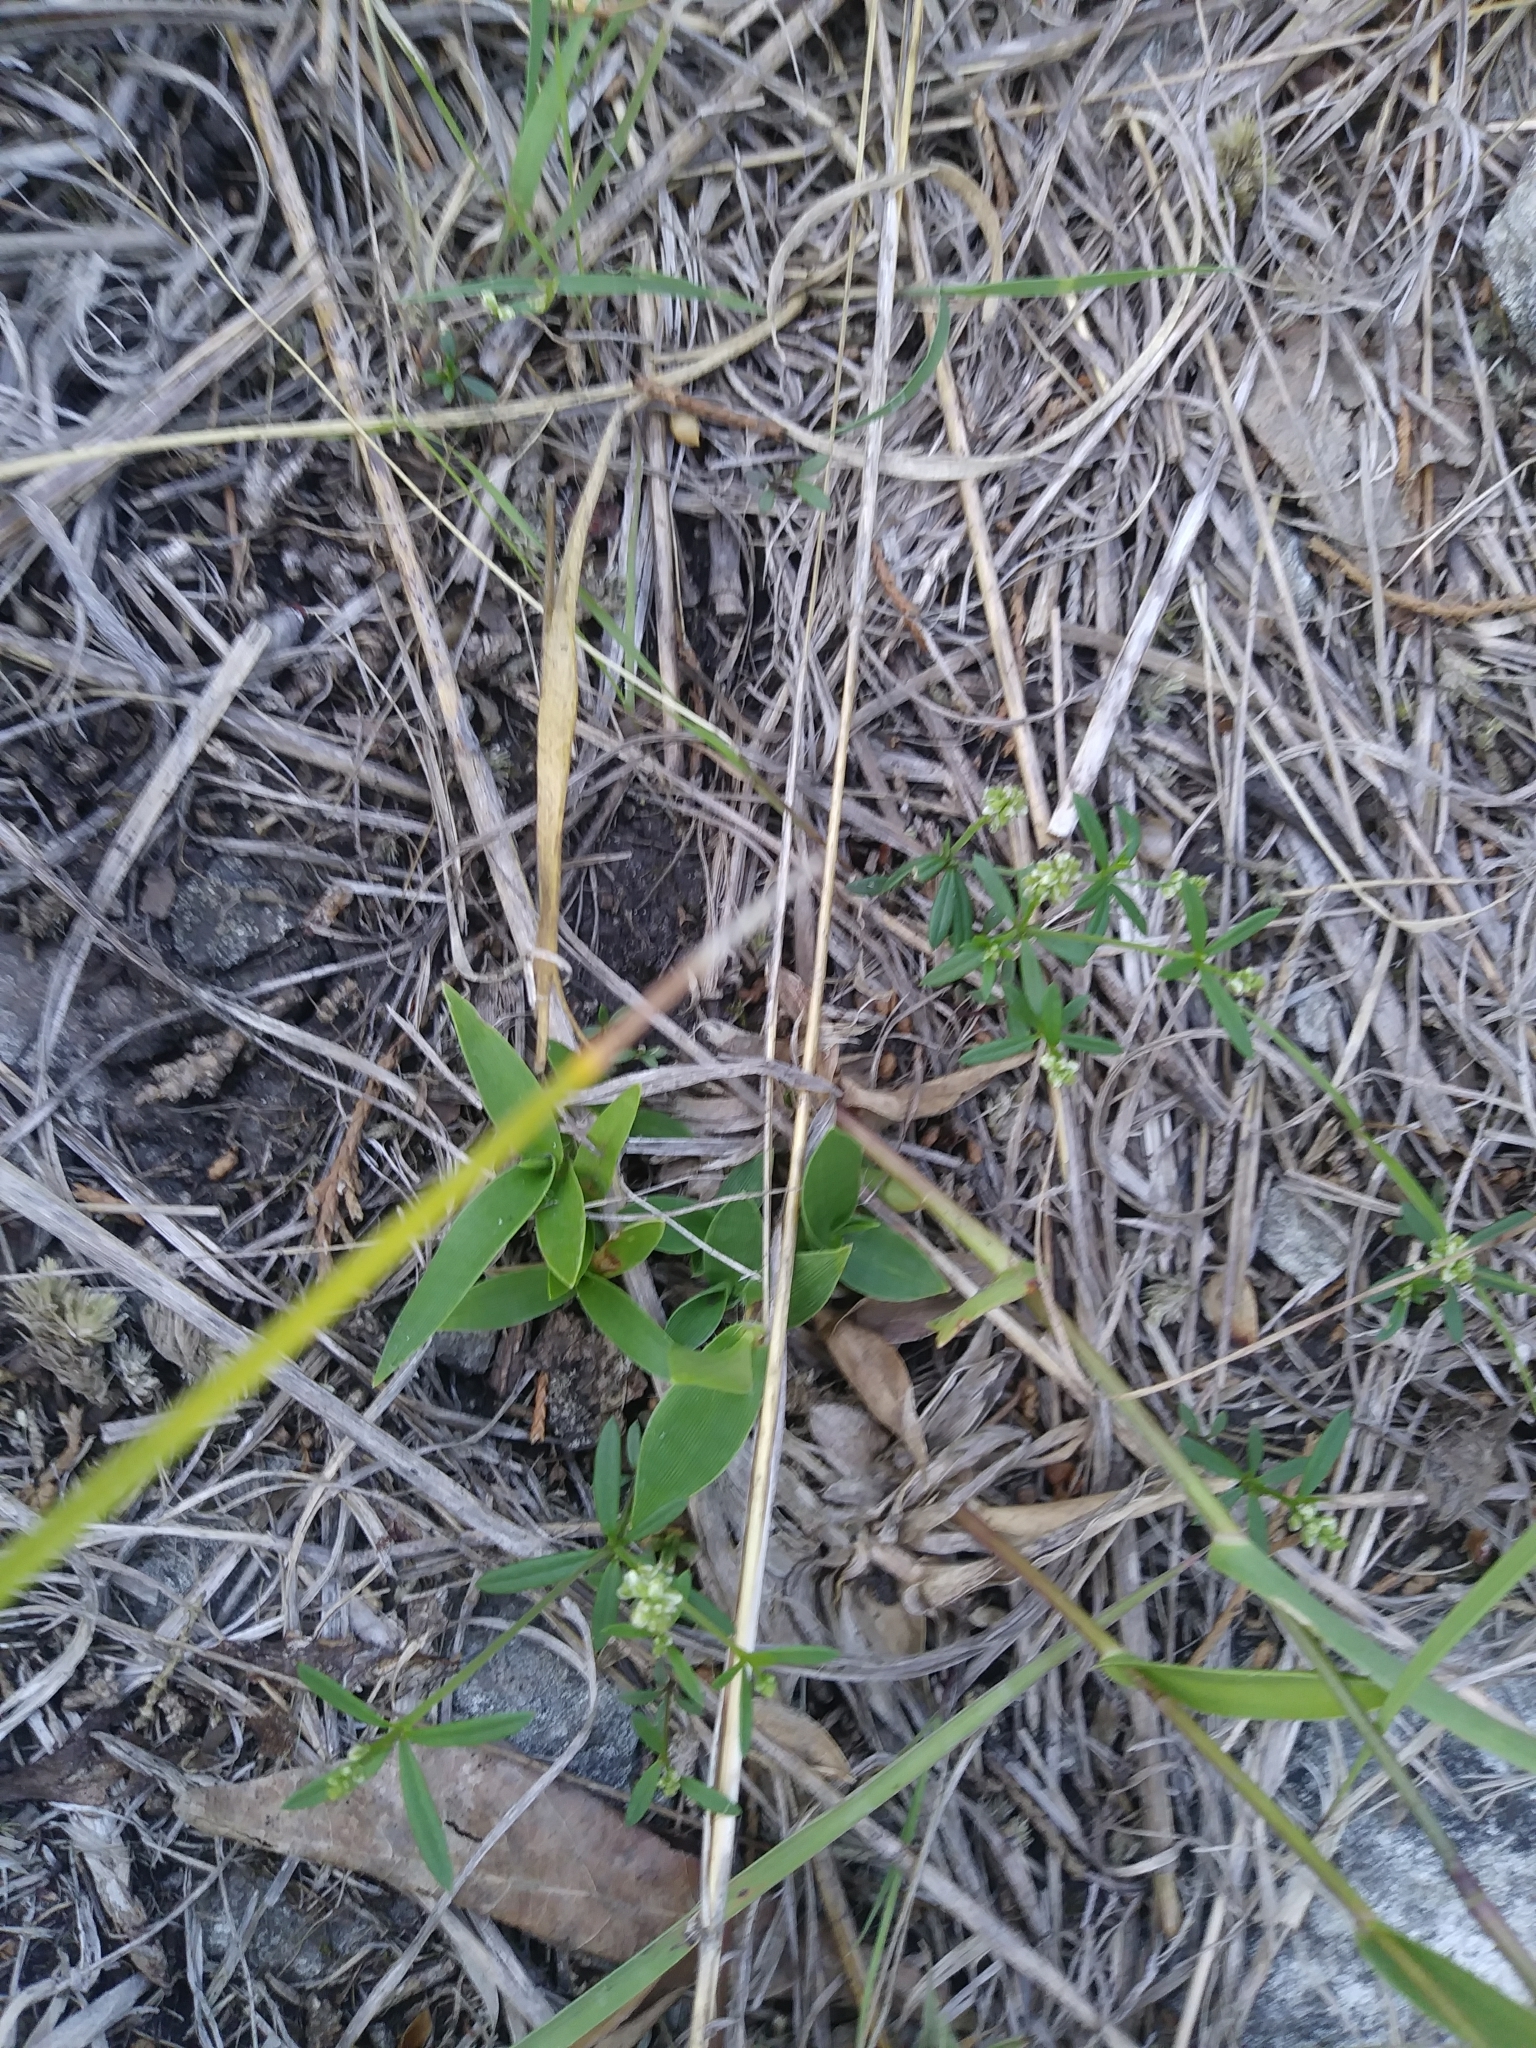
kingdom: Plantae
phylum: Tracheophyta
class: Magnoliopsida
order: Fabales
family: Polygalaceae
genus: Polygala
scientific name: Polygala verticillata
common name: Whorl milkwort
